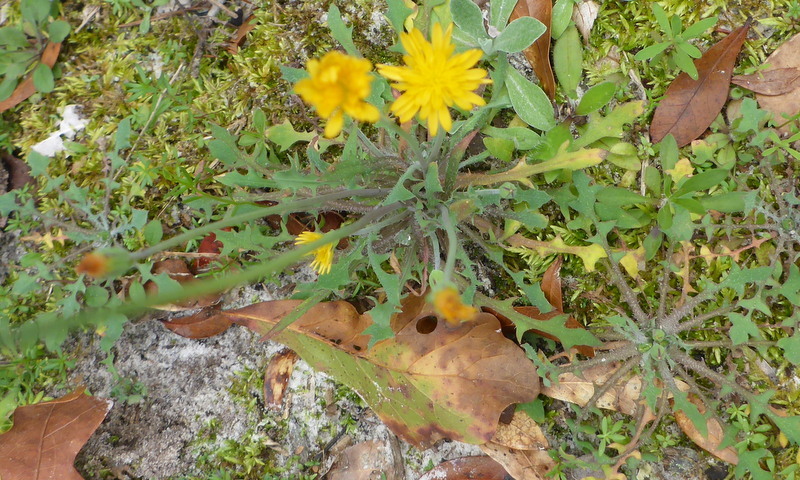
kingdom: Plantae
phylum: Tracheophyta
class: Magnoliopsida
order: Asterales
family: Asteraceae
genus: Krigia
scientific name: Krigia virginica
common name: Virginia dwarf-dandelion
